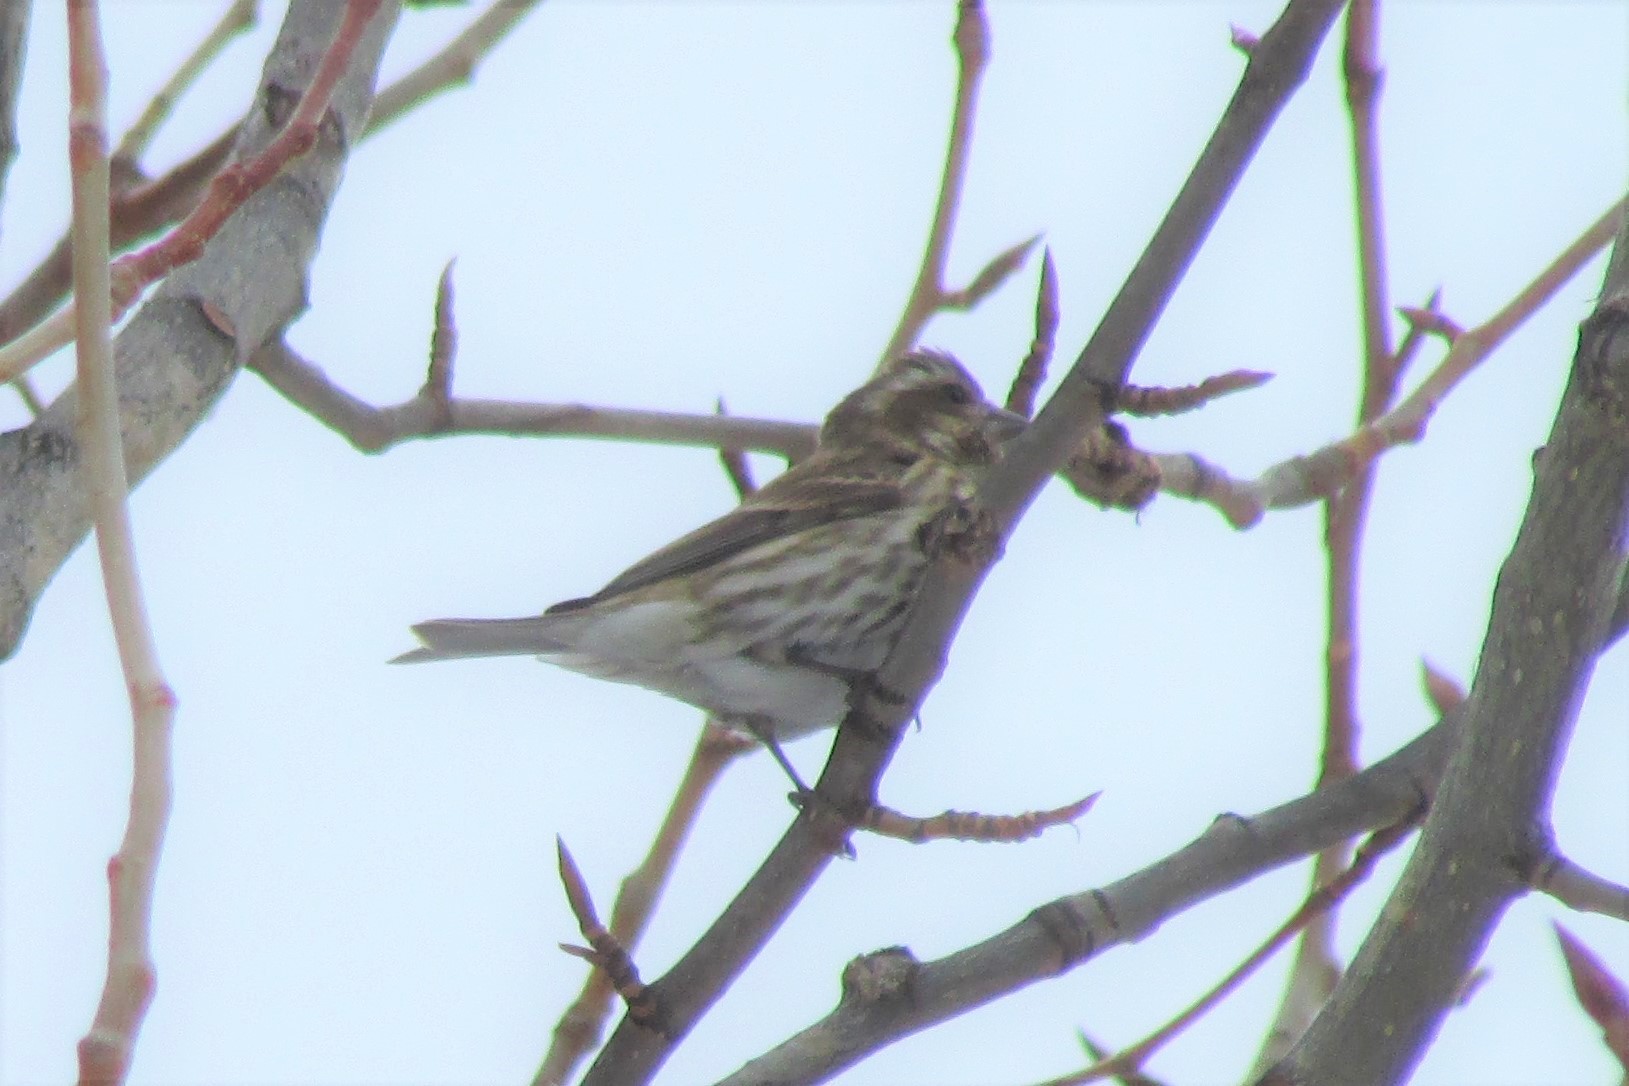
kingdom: Animalia
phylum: Chordata
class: Aves
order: Passeriformes
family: Fringillidae
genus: Haemorhous
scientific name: Haemorhous purpureus
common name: Purple finch
